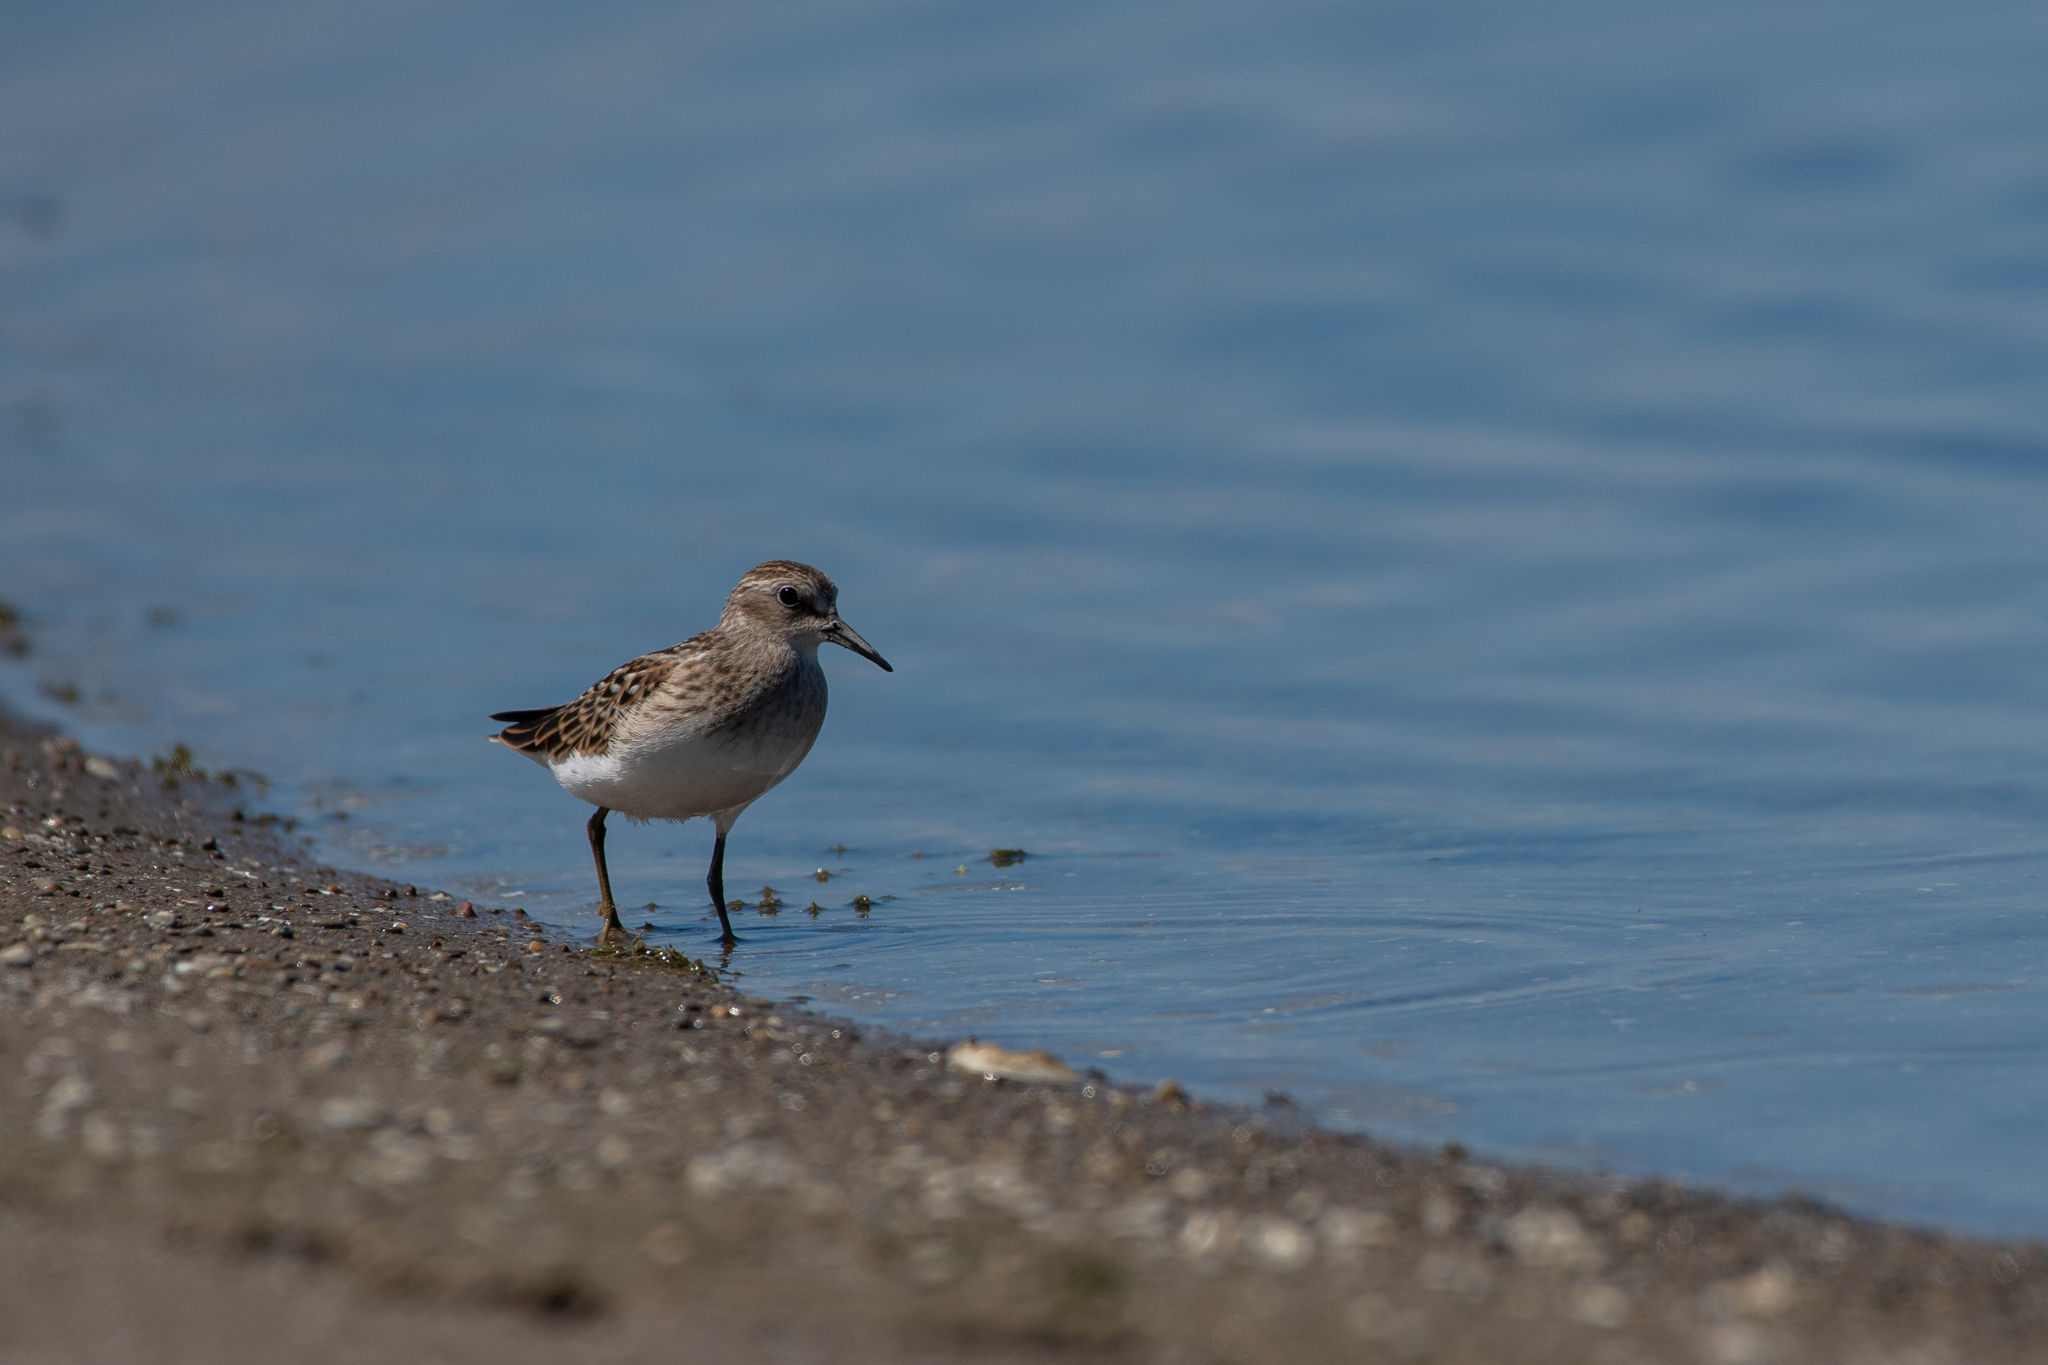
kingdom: Animalia
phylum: Chordata
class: Aves
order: Charadriiformes
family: Scolopacidae
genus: Calidris
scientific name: Calidris minutilla
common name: Least sandpiper
